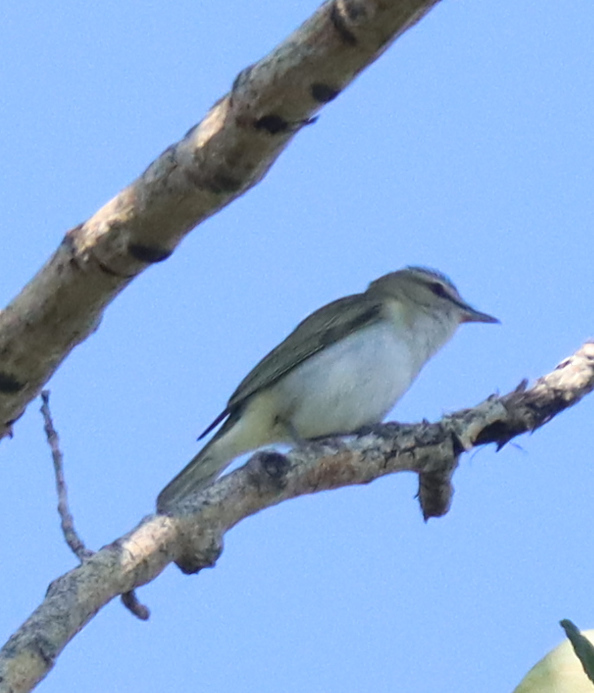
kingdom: Animalia
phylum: Chordata
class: Aves
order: Passeriformes
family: Vireonidae
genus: Vireo
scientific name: Vireo olivaceus
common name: Red-eyed vireo
